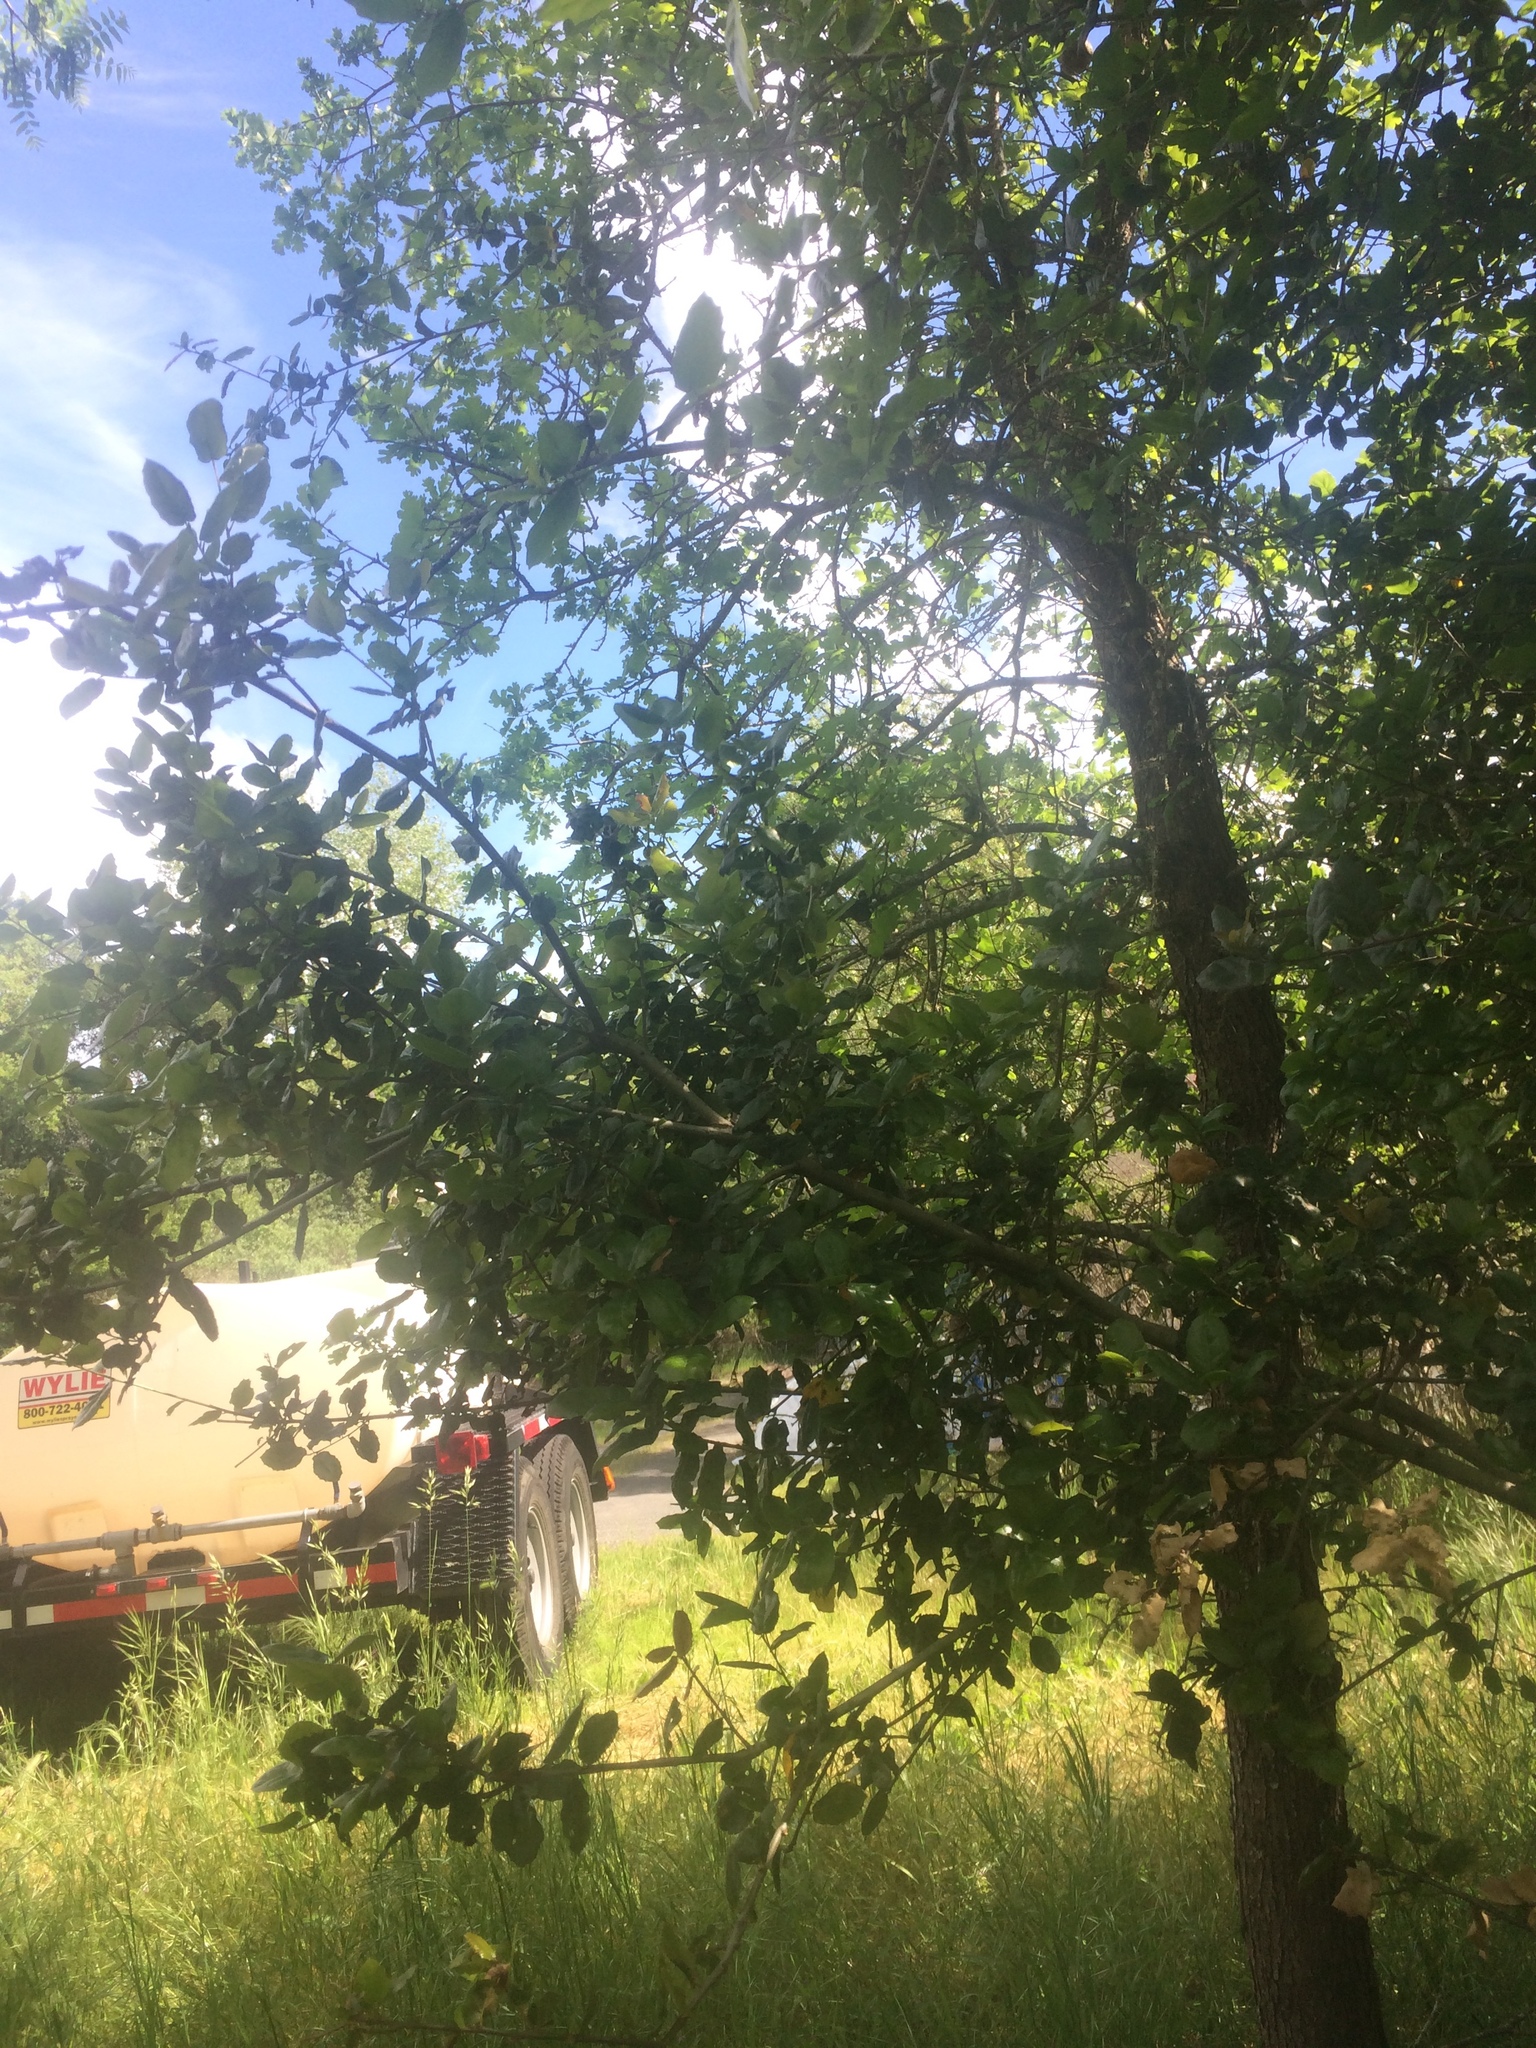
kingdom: Plantae
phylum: Tracheophyta
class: Magnoliopsida
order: Fagales
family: Fagaceae
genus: Quercus
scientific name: Quercus agrifolia
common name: California live oak
